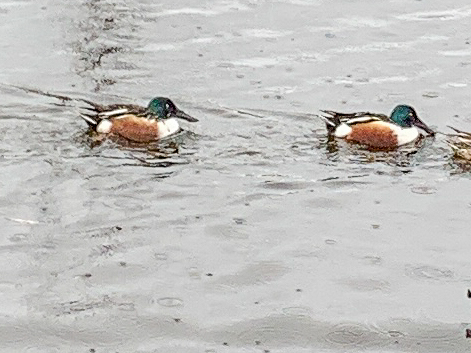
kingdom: Animalia
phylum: Chordata
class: Aves
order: Anseriformes
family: Anatidae
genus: Spatula
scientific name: Spatula clypeata
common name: Northern shoveler
